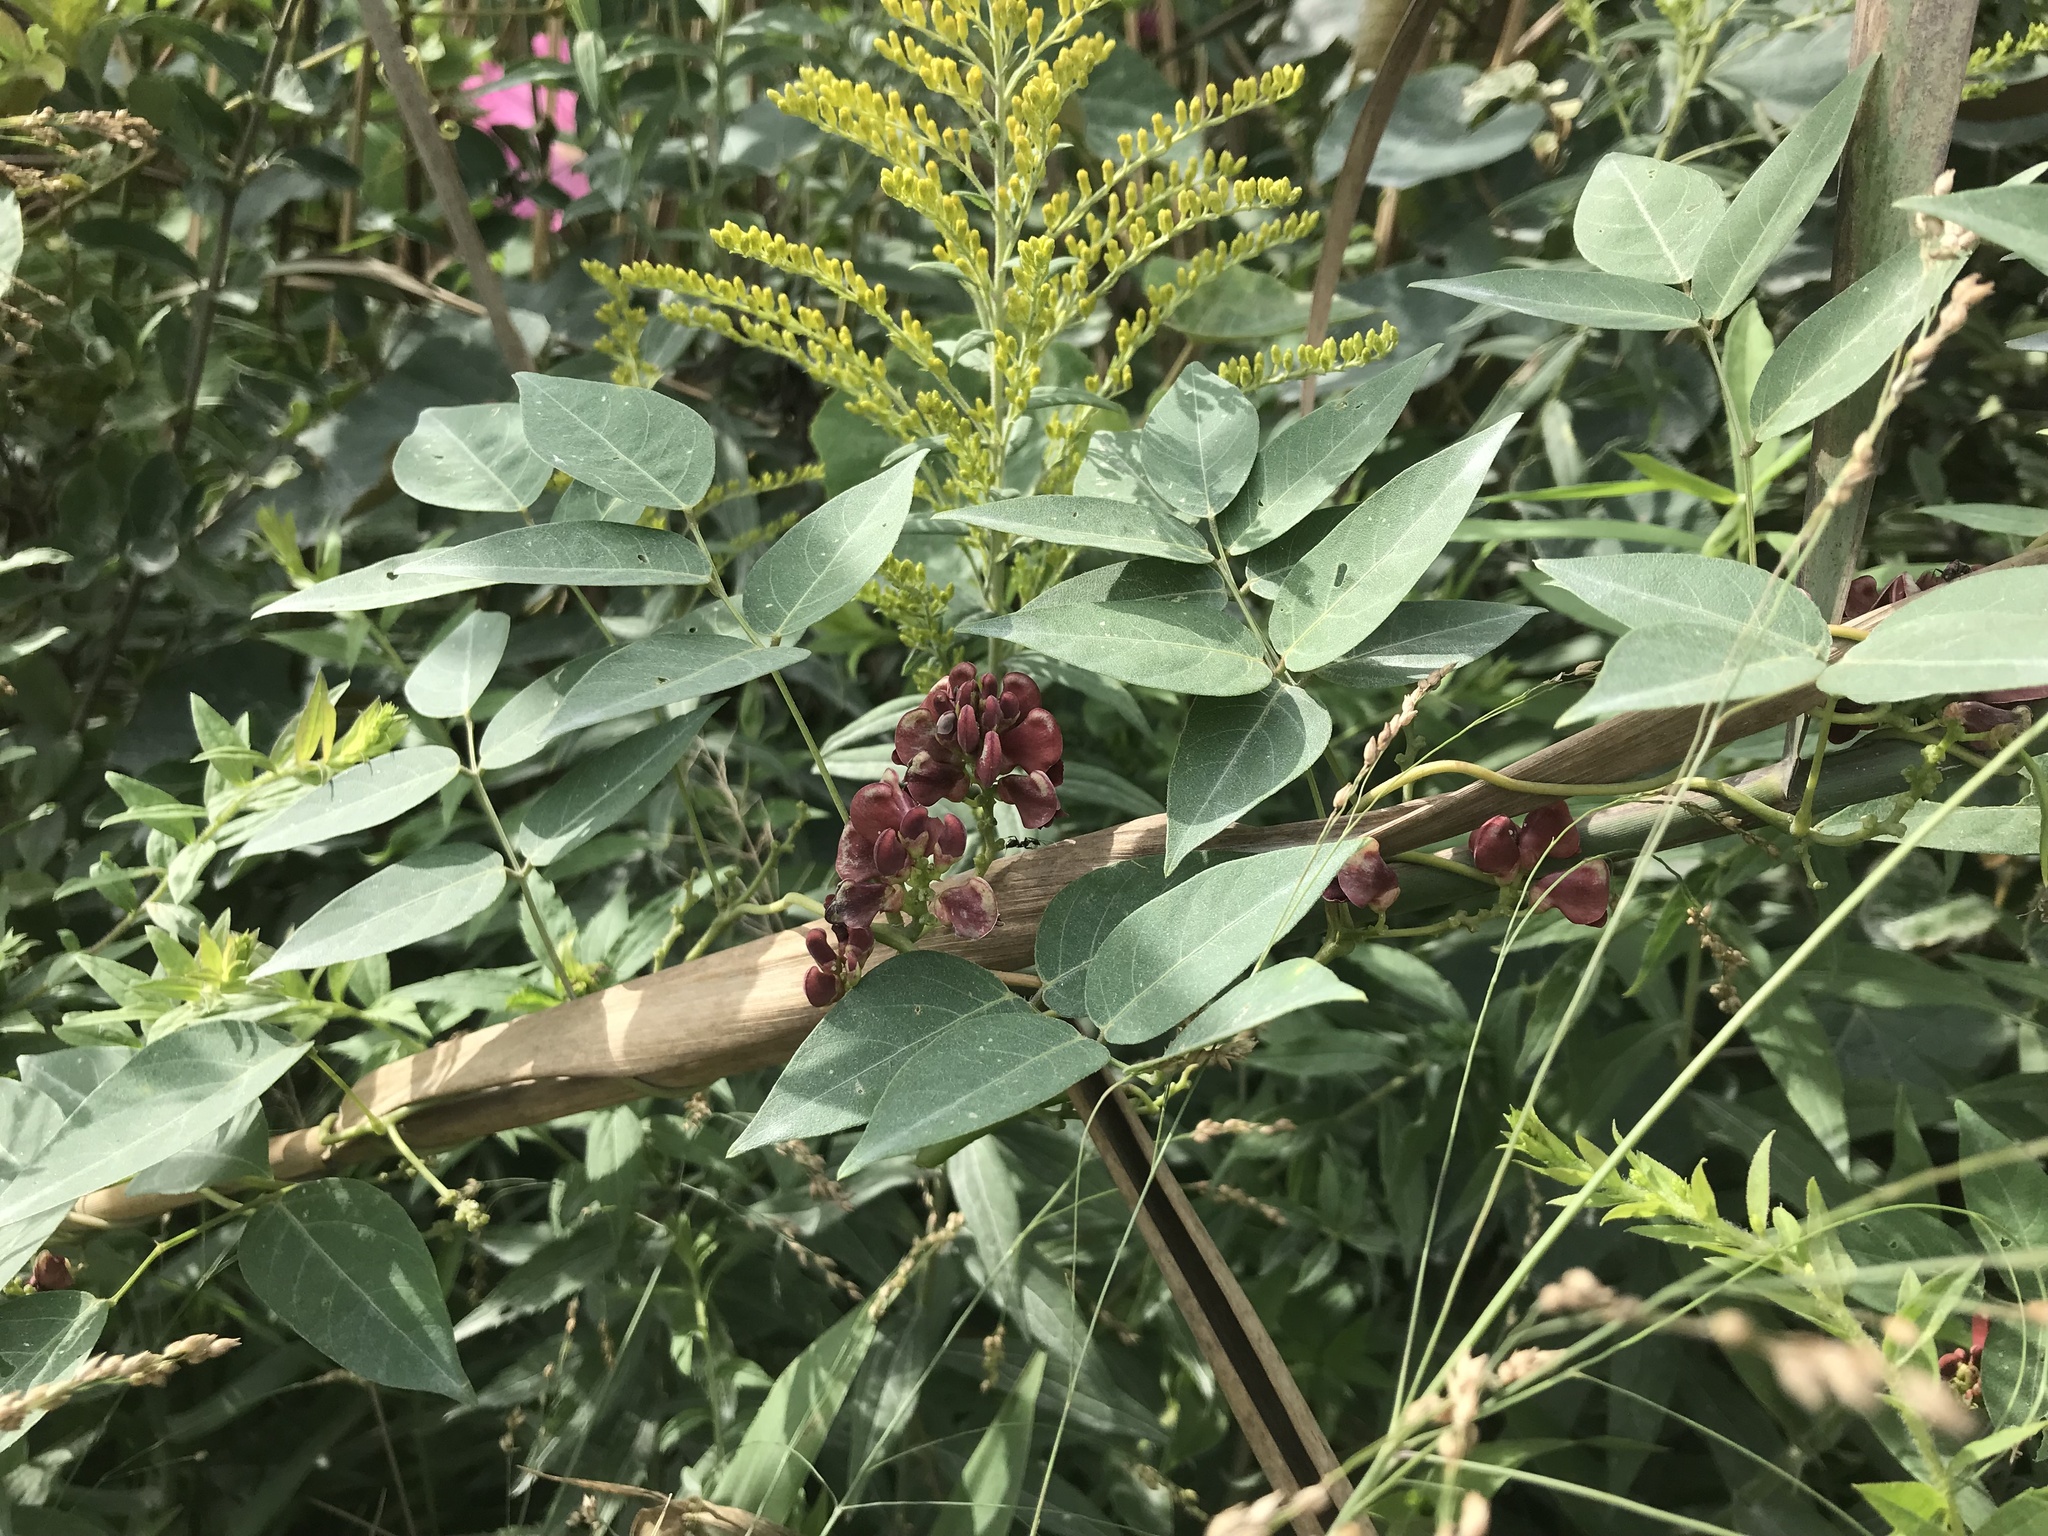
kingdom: Plantae
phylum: Tracheophyta
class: Magnoliopsida
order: Fabales
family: Fabaceae
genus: Apios
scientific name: Apios americana
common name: American potato-bean
